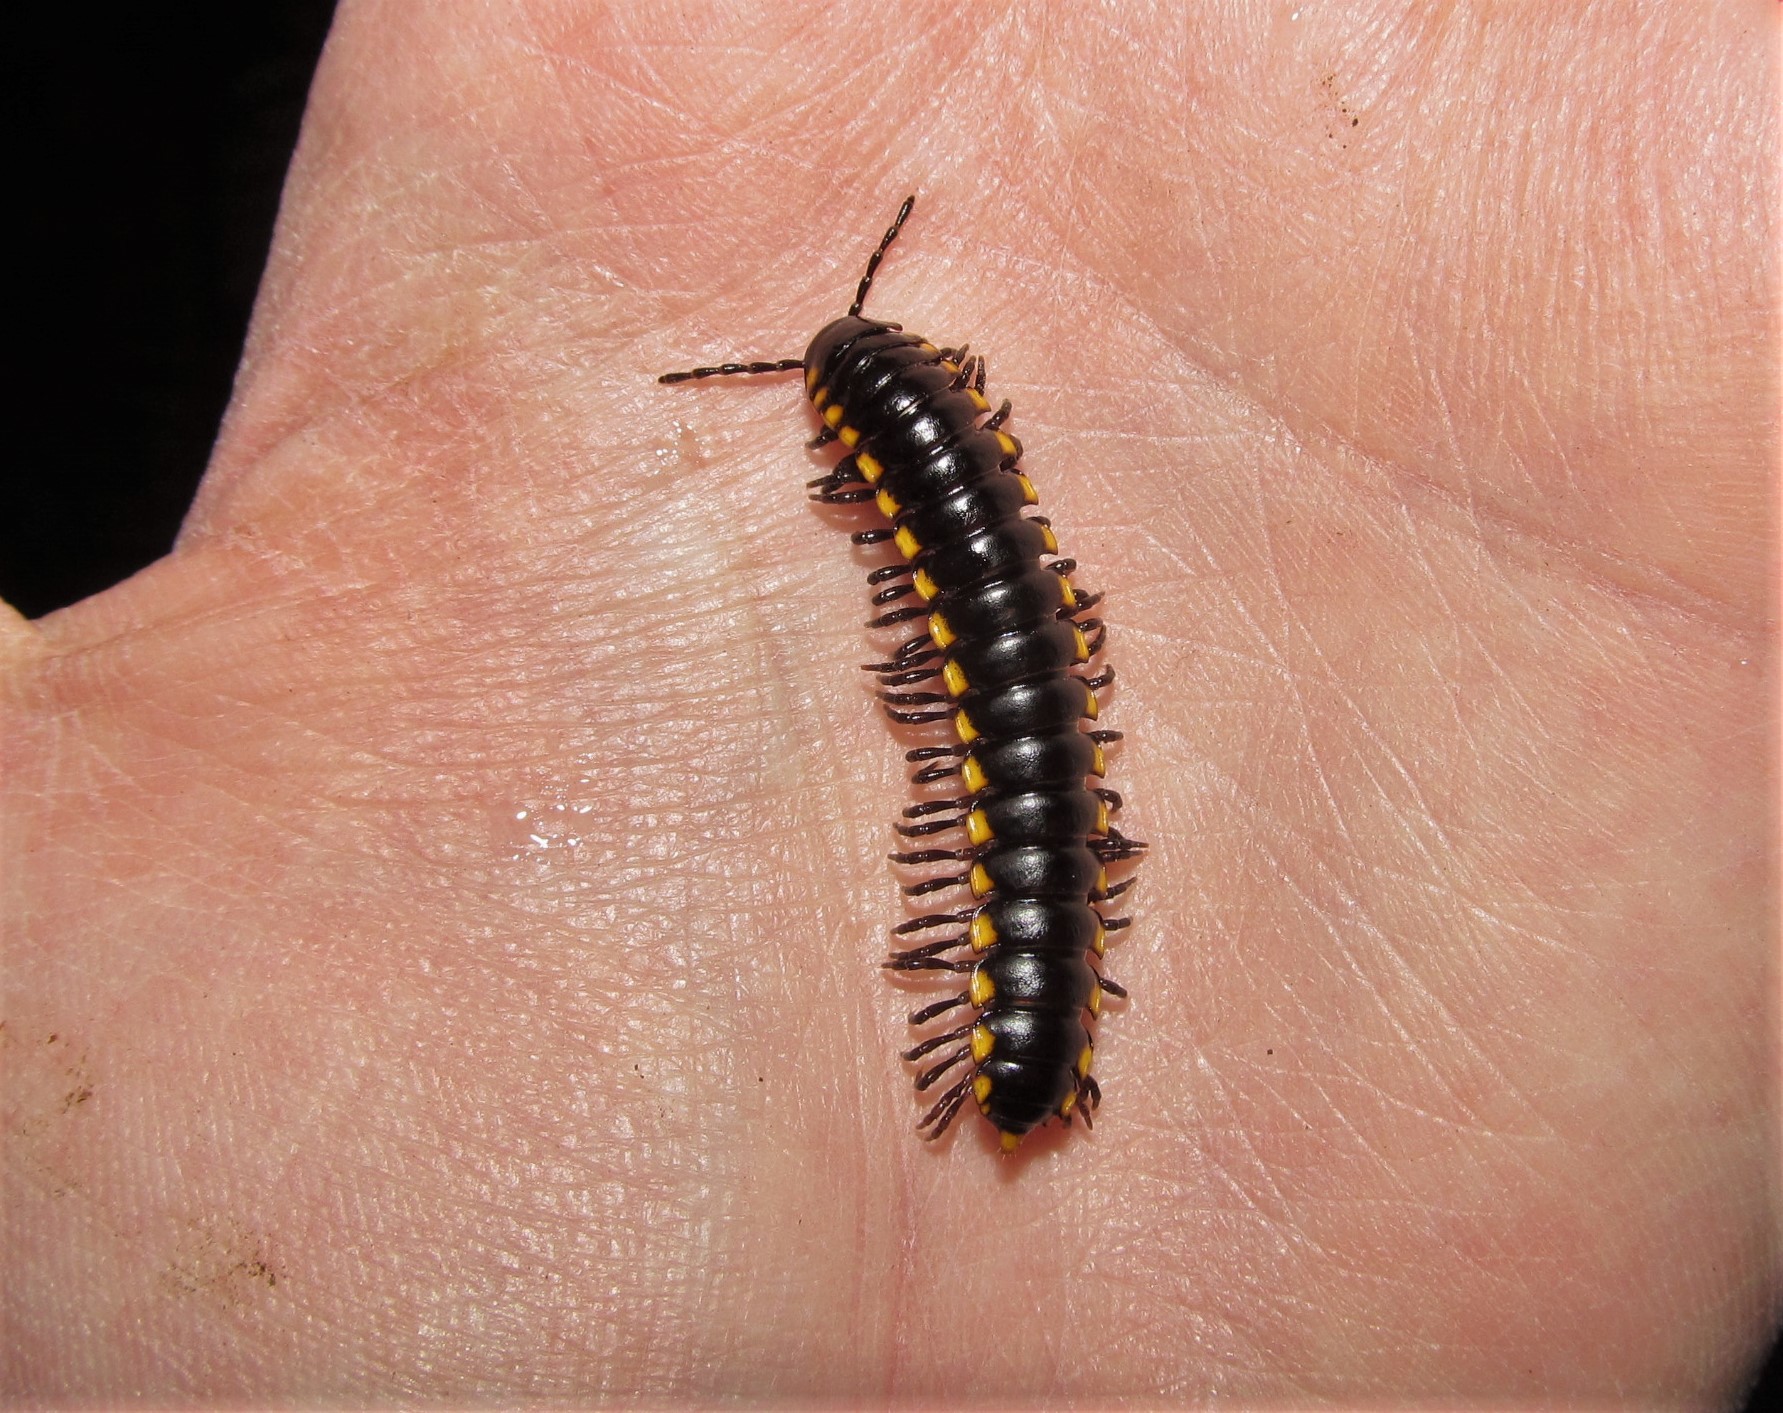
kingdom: Animalia
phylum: Arthropoda
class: Diplopoda
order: Polydesmida
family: Xystodesmidae
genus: Harpaphe
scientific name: Harpaphe haydeniana
